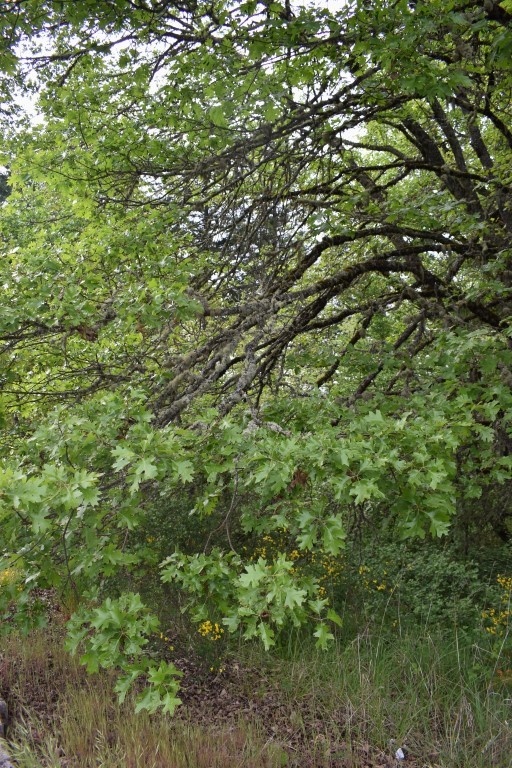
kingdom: Plantae
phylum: Tracheophyta
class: Magnoliopsida
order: Fagales
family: Fagaceae
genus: Quercus
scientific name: Quercus kelloggii
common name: California black oak
